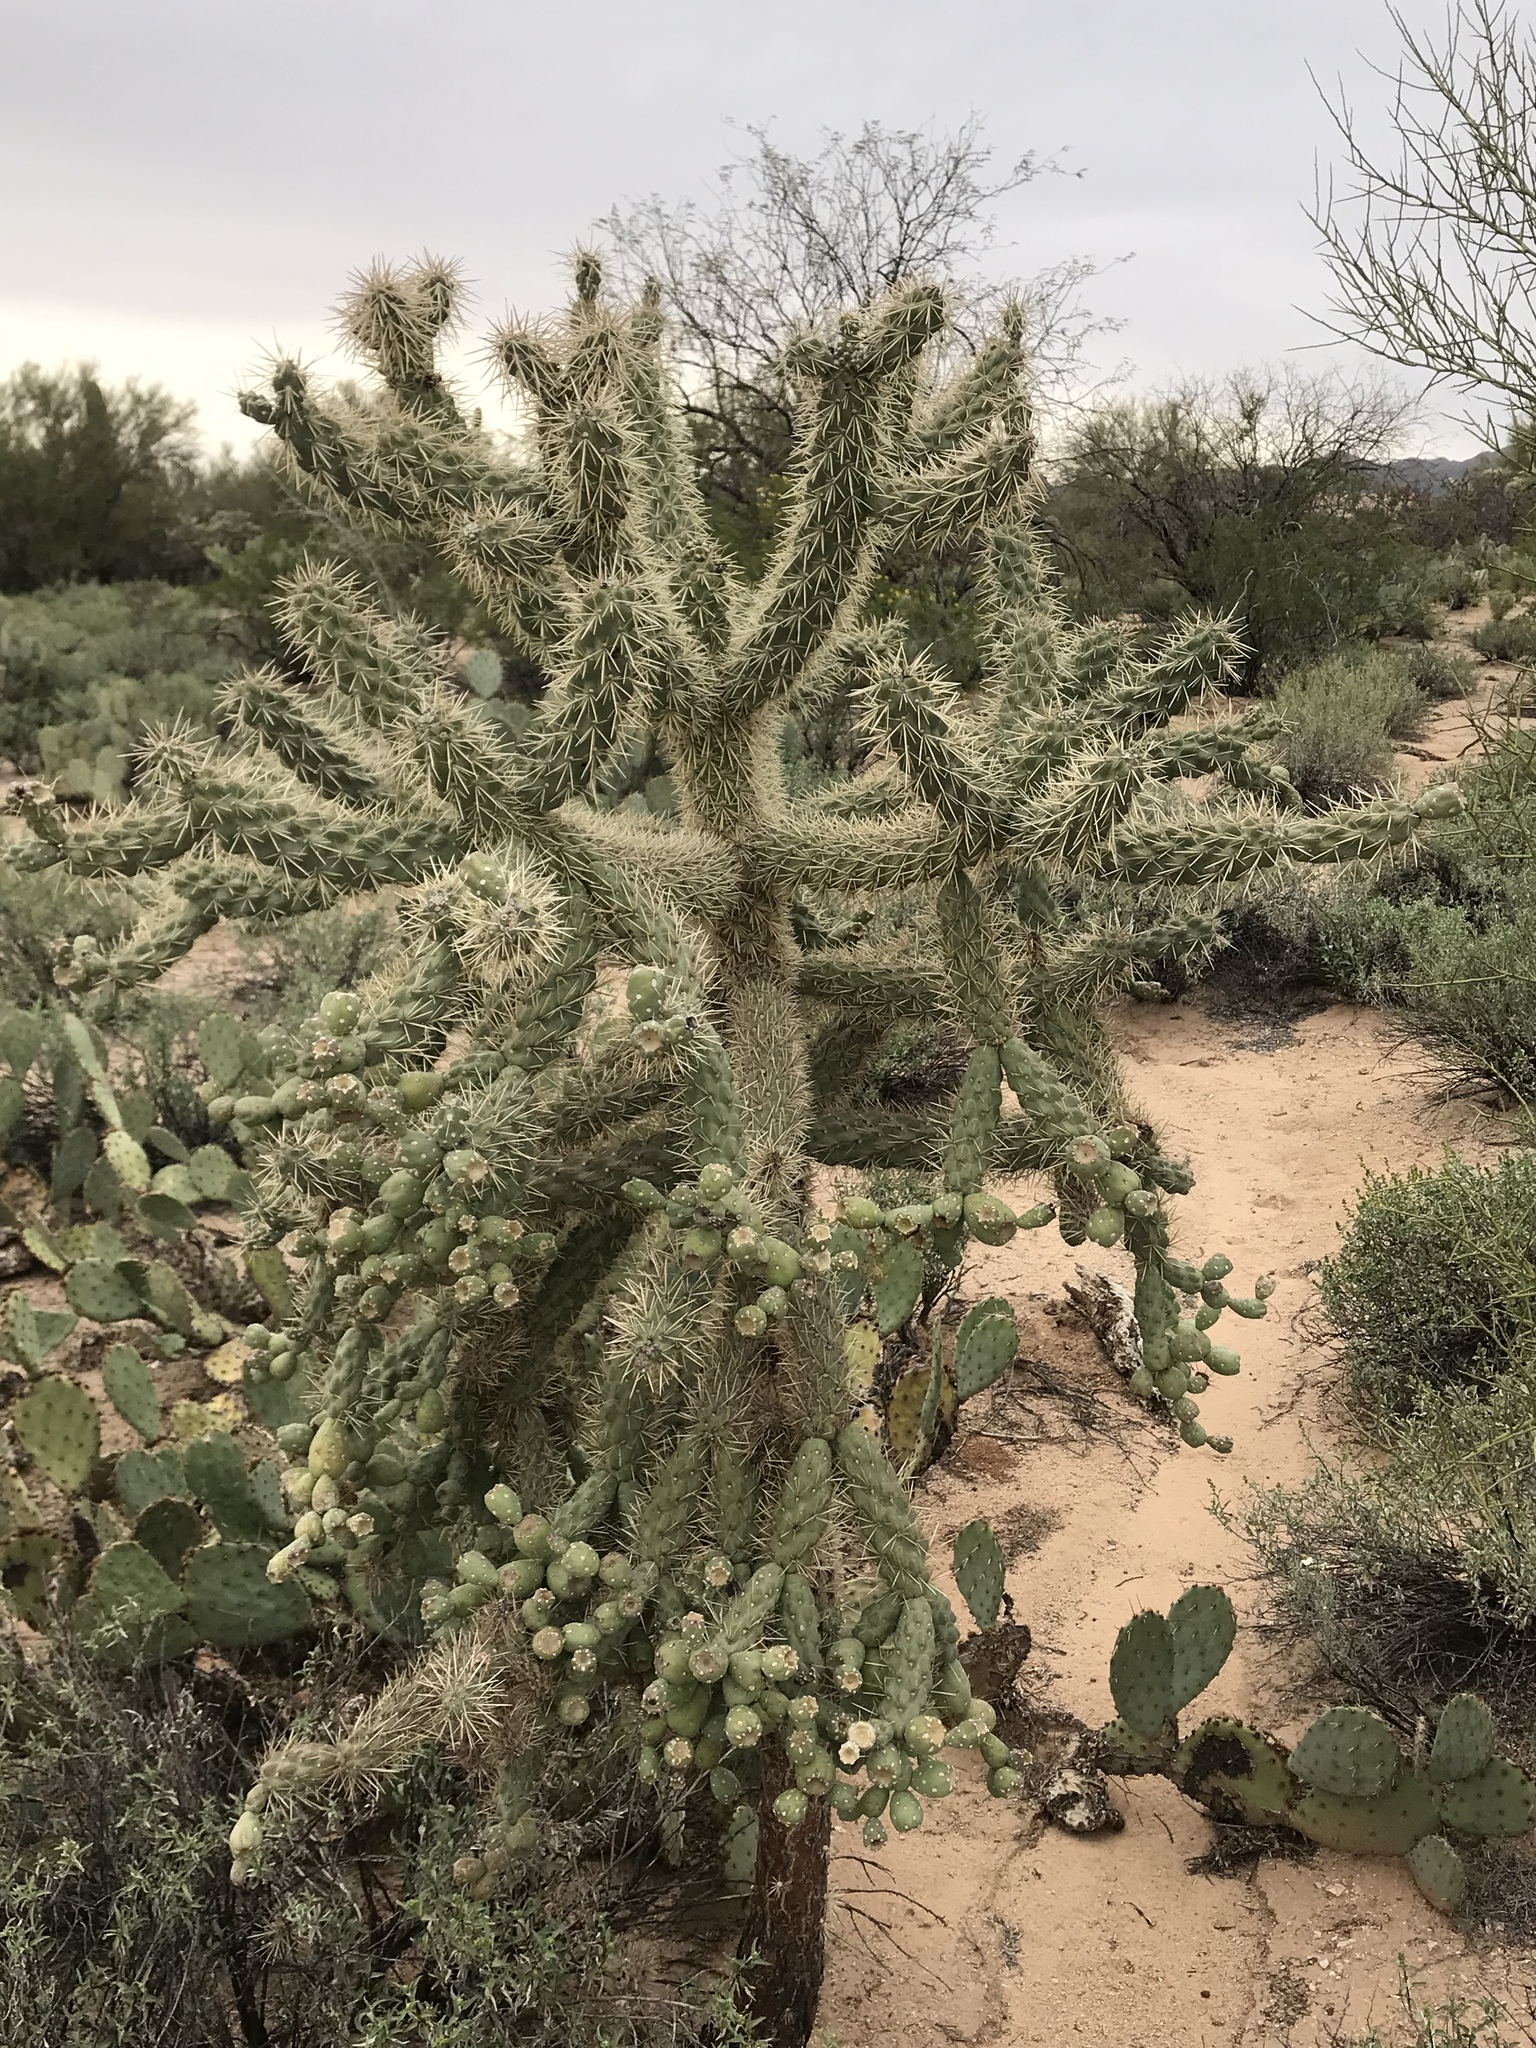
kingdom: Plantae
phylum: Tracheophyta
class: Magnoliopsida
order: Caryophyllales
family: Cactaceae
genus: Cylindropuntia
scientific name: Cylindropuntia fulgida
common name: Jumping cholla
